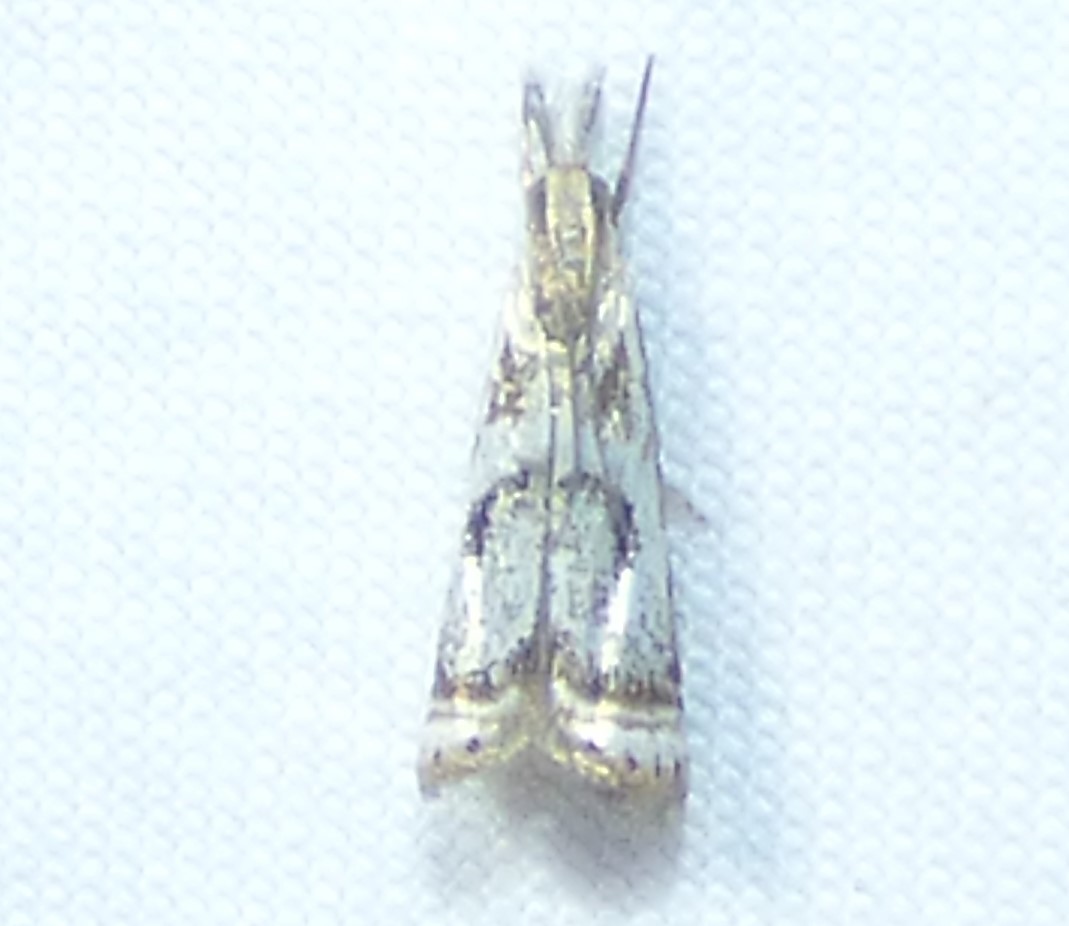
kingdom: Animalia
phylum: Arthropoda
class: Insecta
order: Lepidoptera
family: Crambidae
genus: Microcrambus
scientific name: Microcrambus elegans
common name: Elegant grass-veneer
